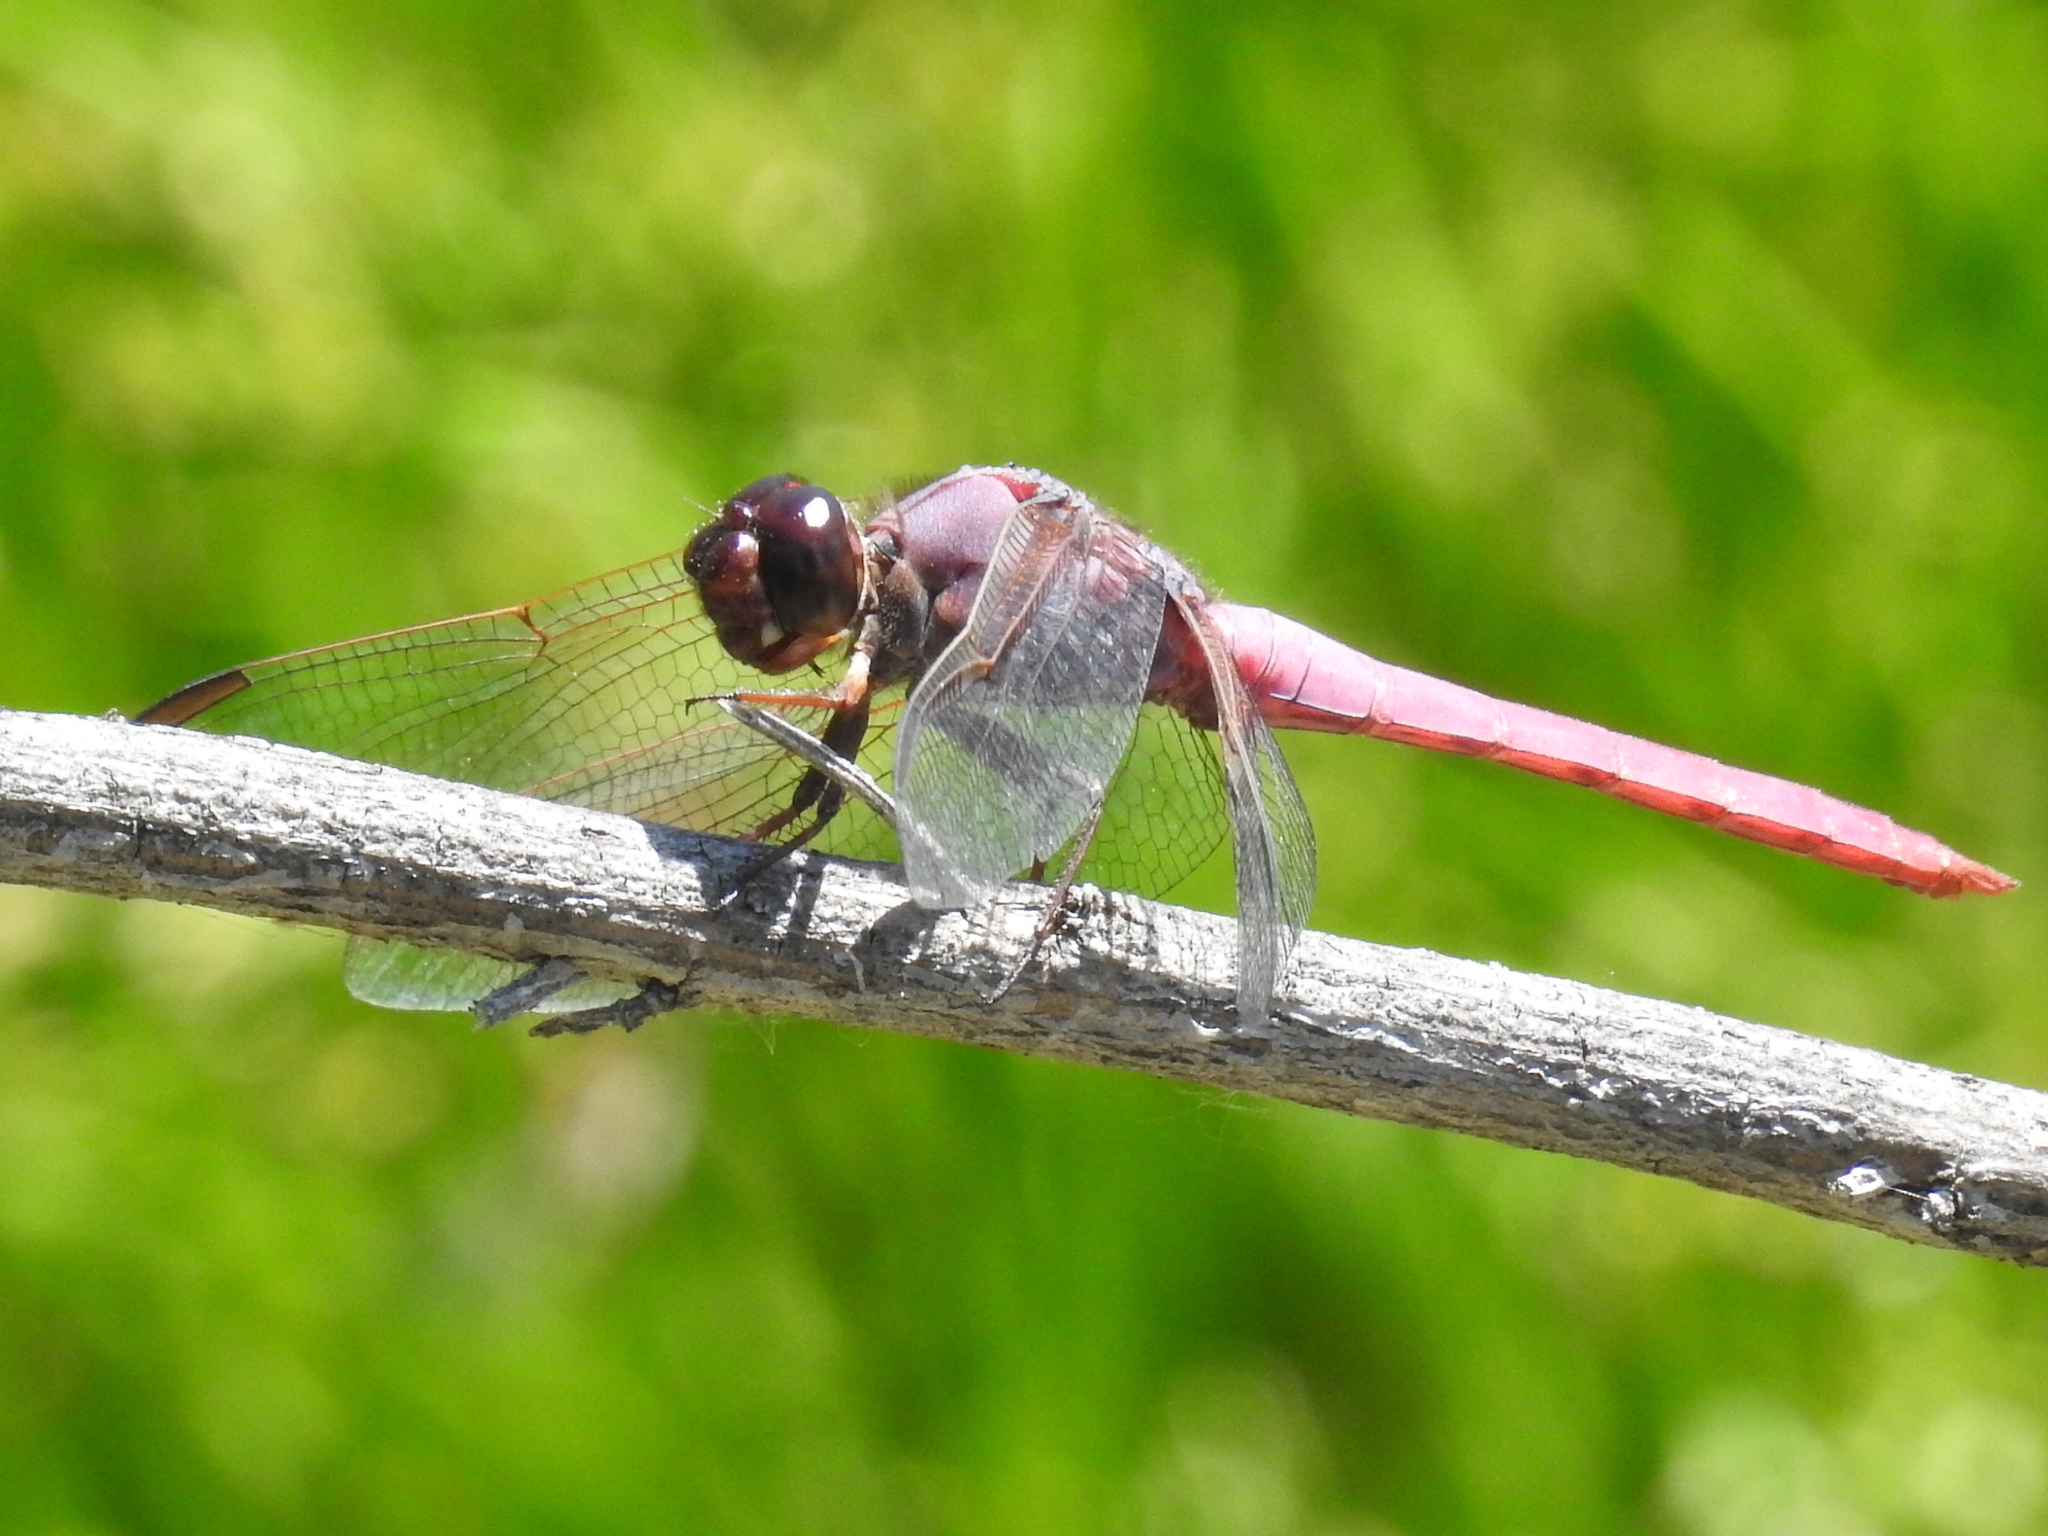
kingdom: Animalia
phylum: Arthropoda
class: Insecta
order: Odonata
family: Libellulidae
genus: Orthemis
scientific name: Orthemis ferruginea
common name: Roseate skimmer
